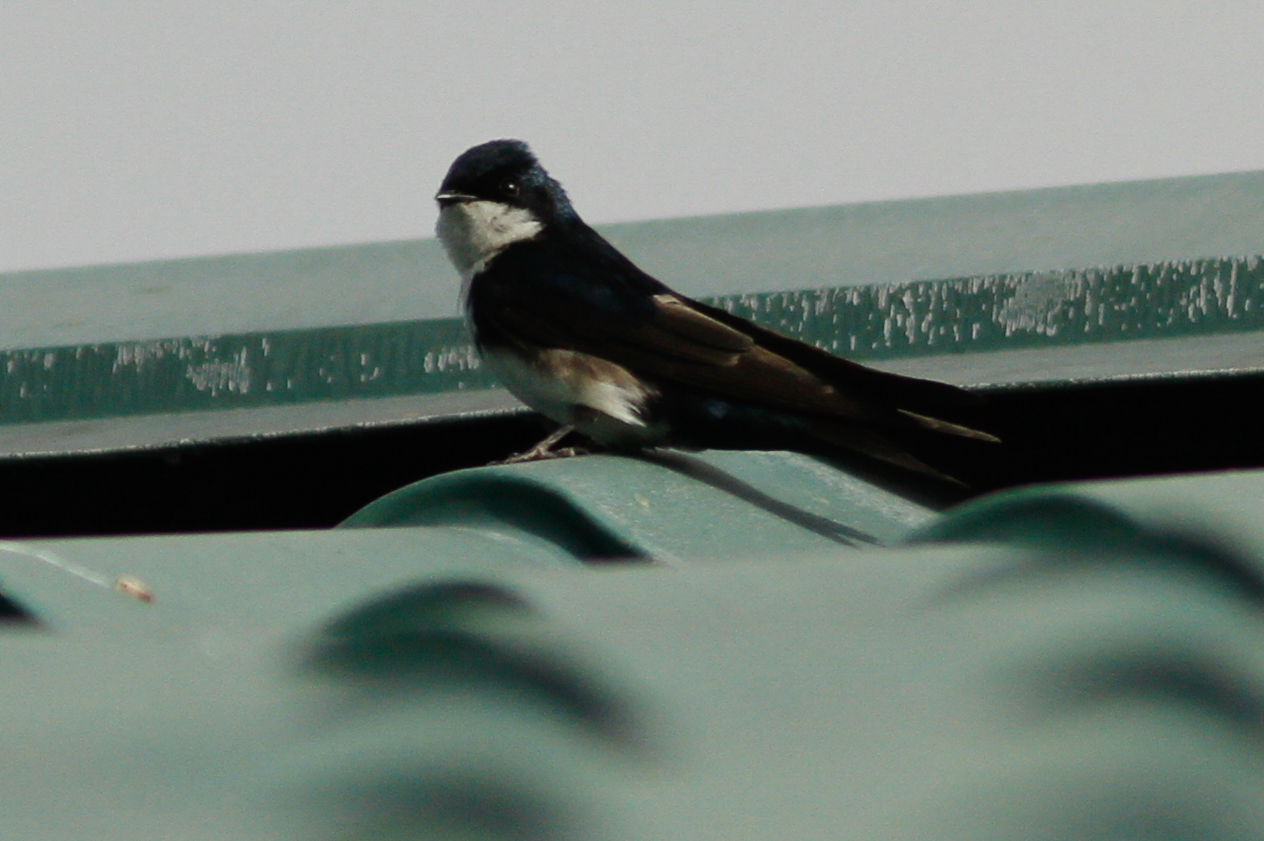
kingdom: Animalia
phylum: Chordata
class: Aves
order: Passeriformes
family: Hirundinidae
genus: Notiochelidon
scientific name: Notiochelidon cyanoleuca
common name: Blue-and-white swallow
